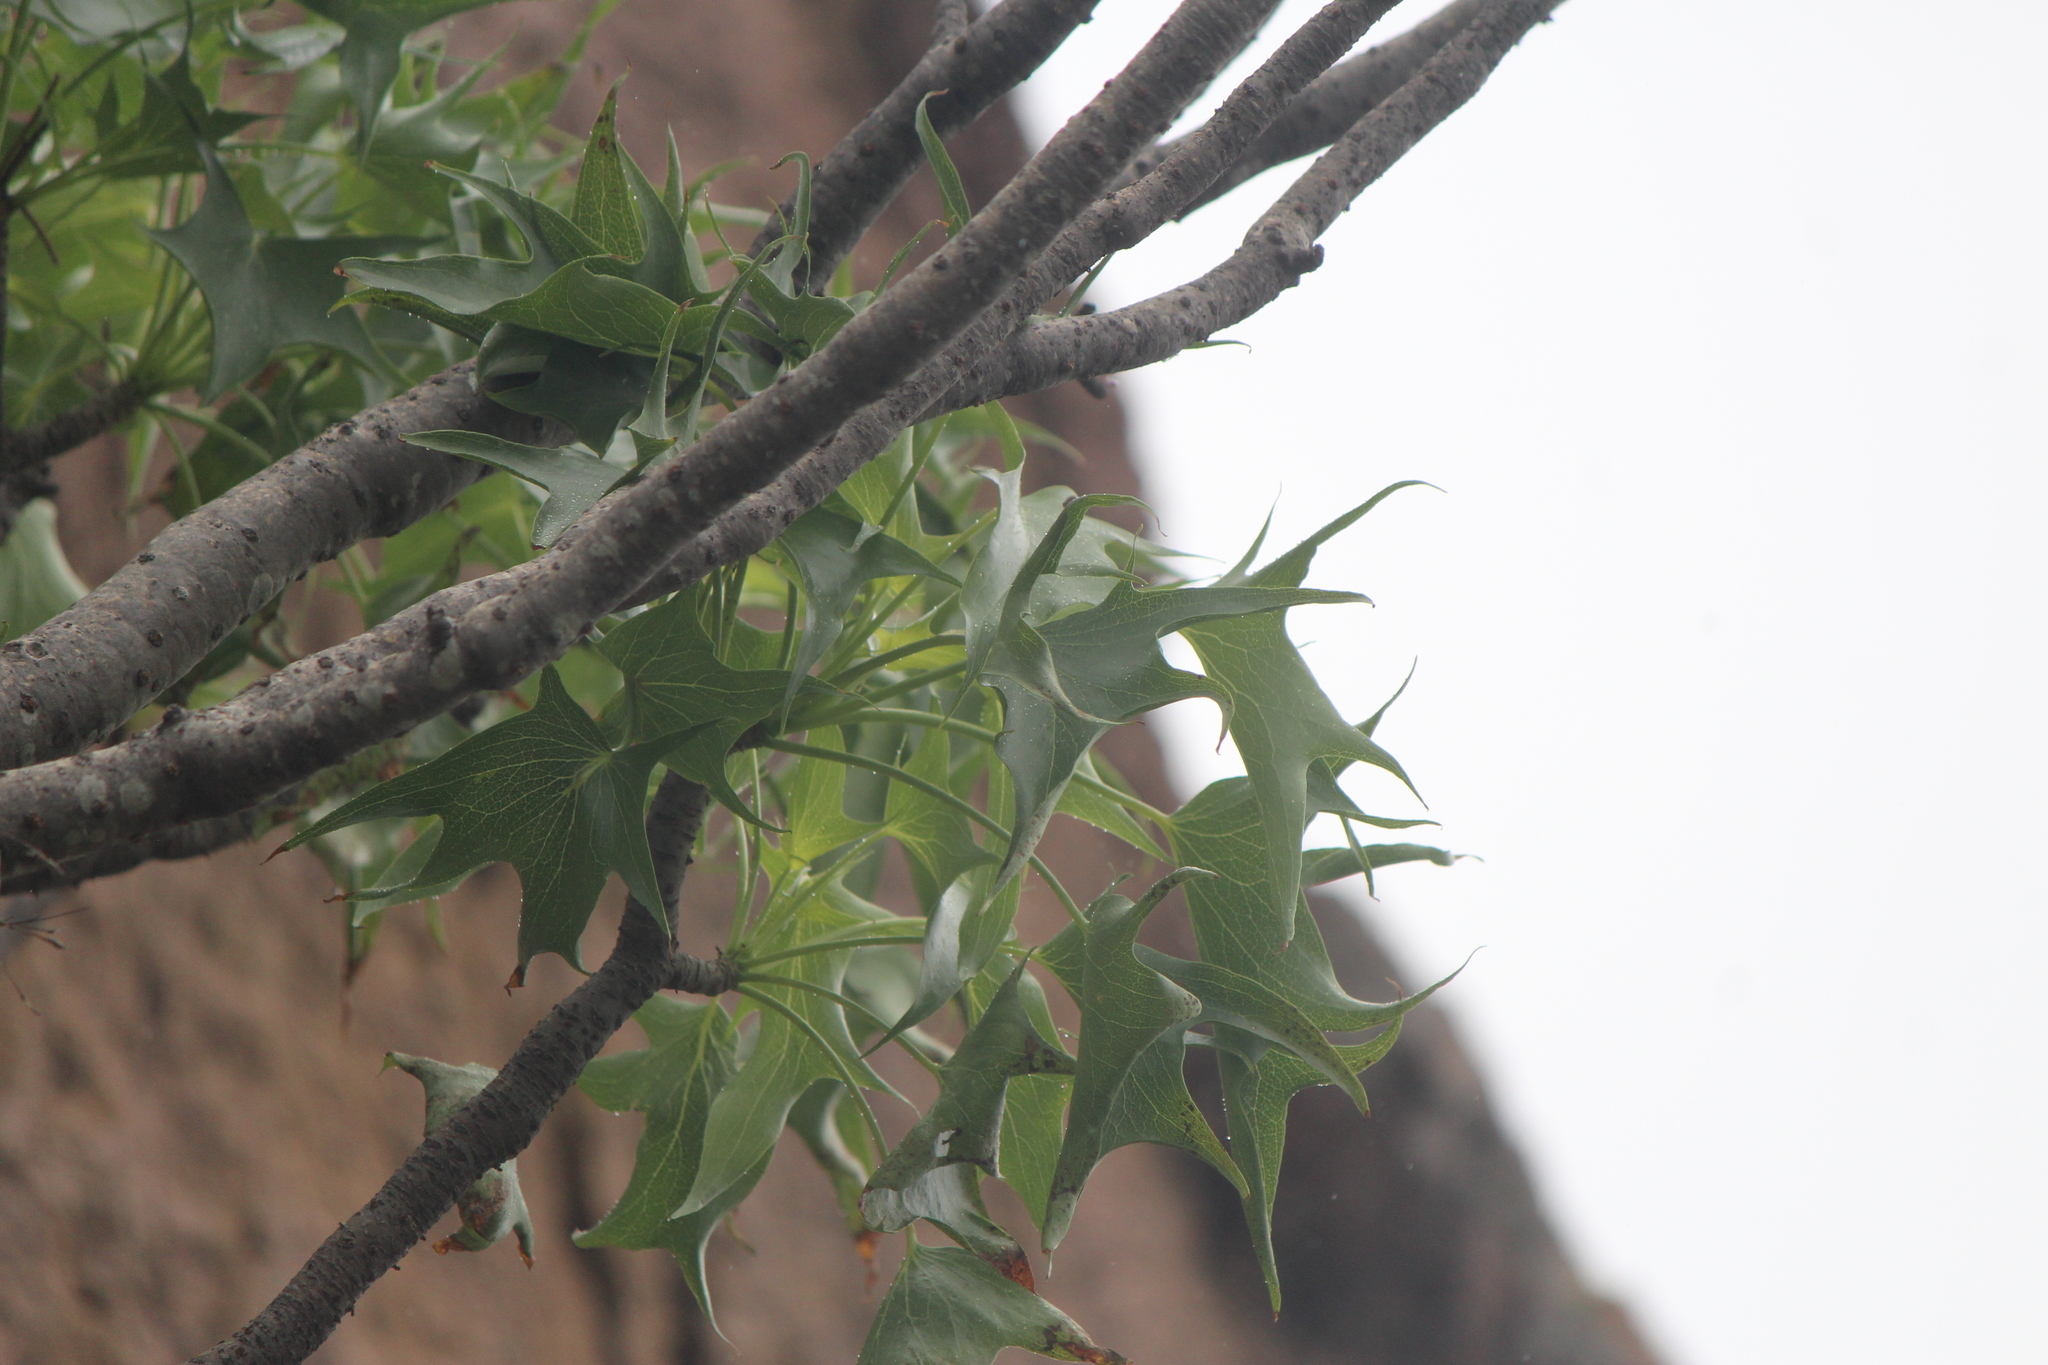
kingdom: Plantae
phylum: Tracheophyta
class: Magnoliopsida
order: Asterales
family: Asteraceae
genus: Pittocaulon
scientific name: Pittocaulon praecox
